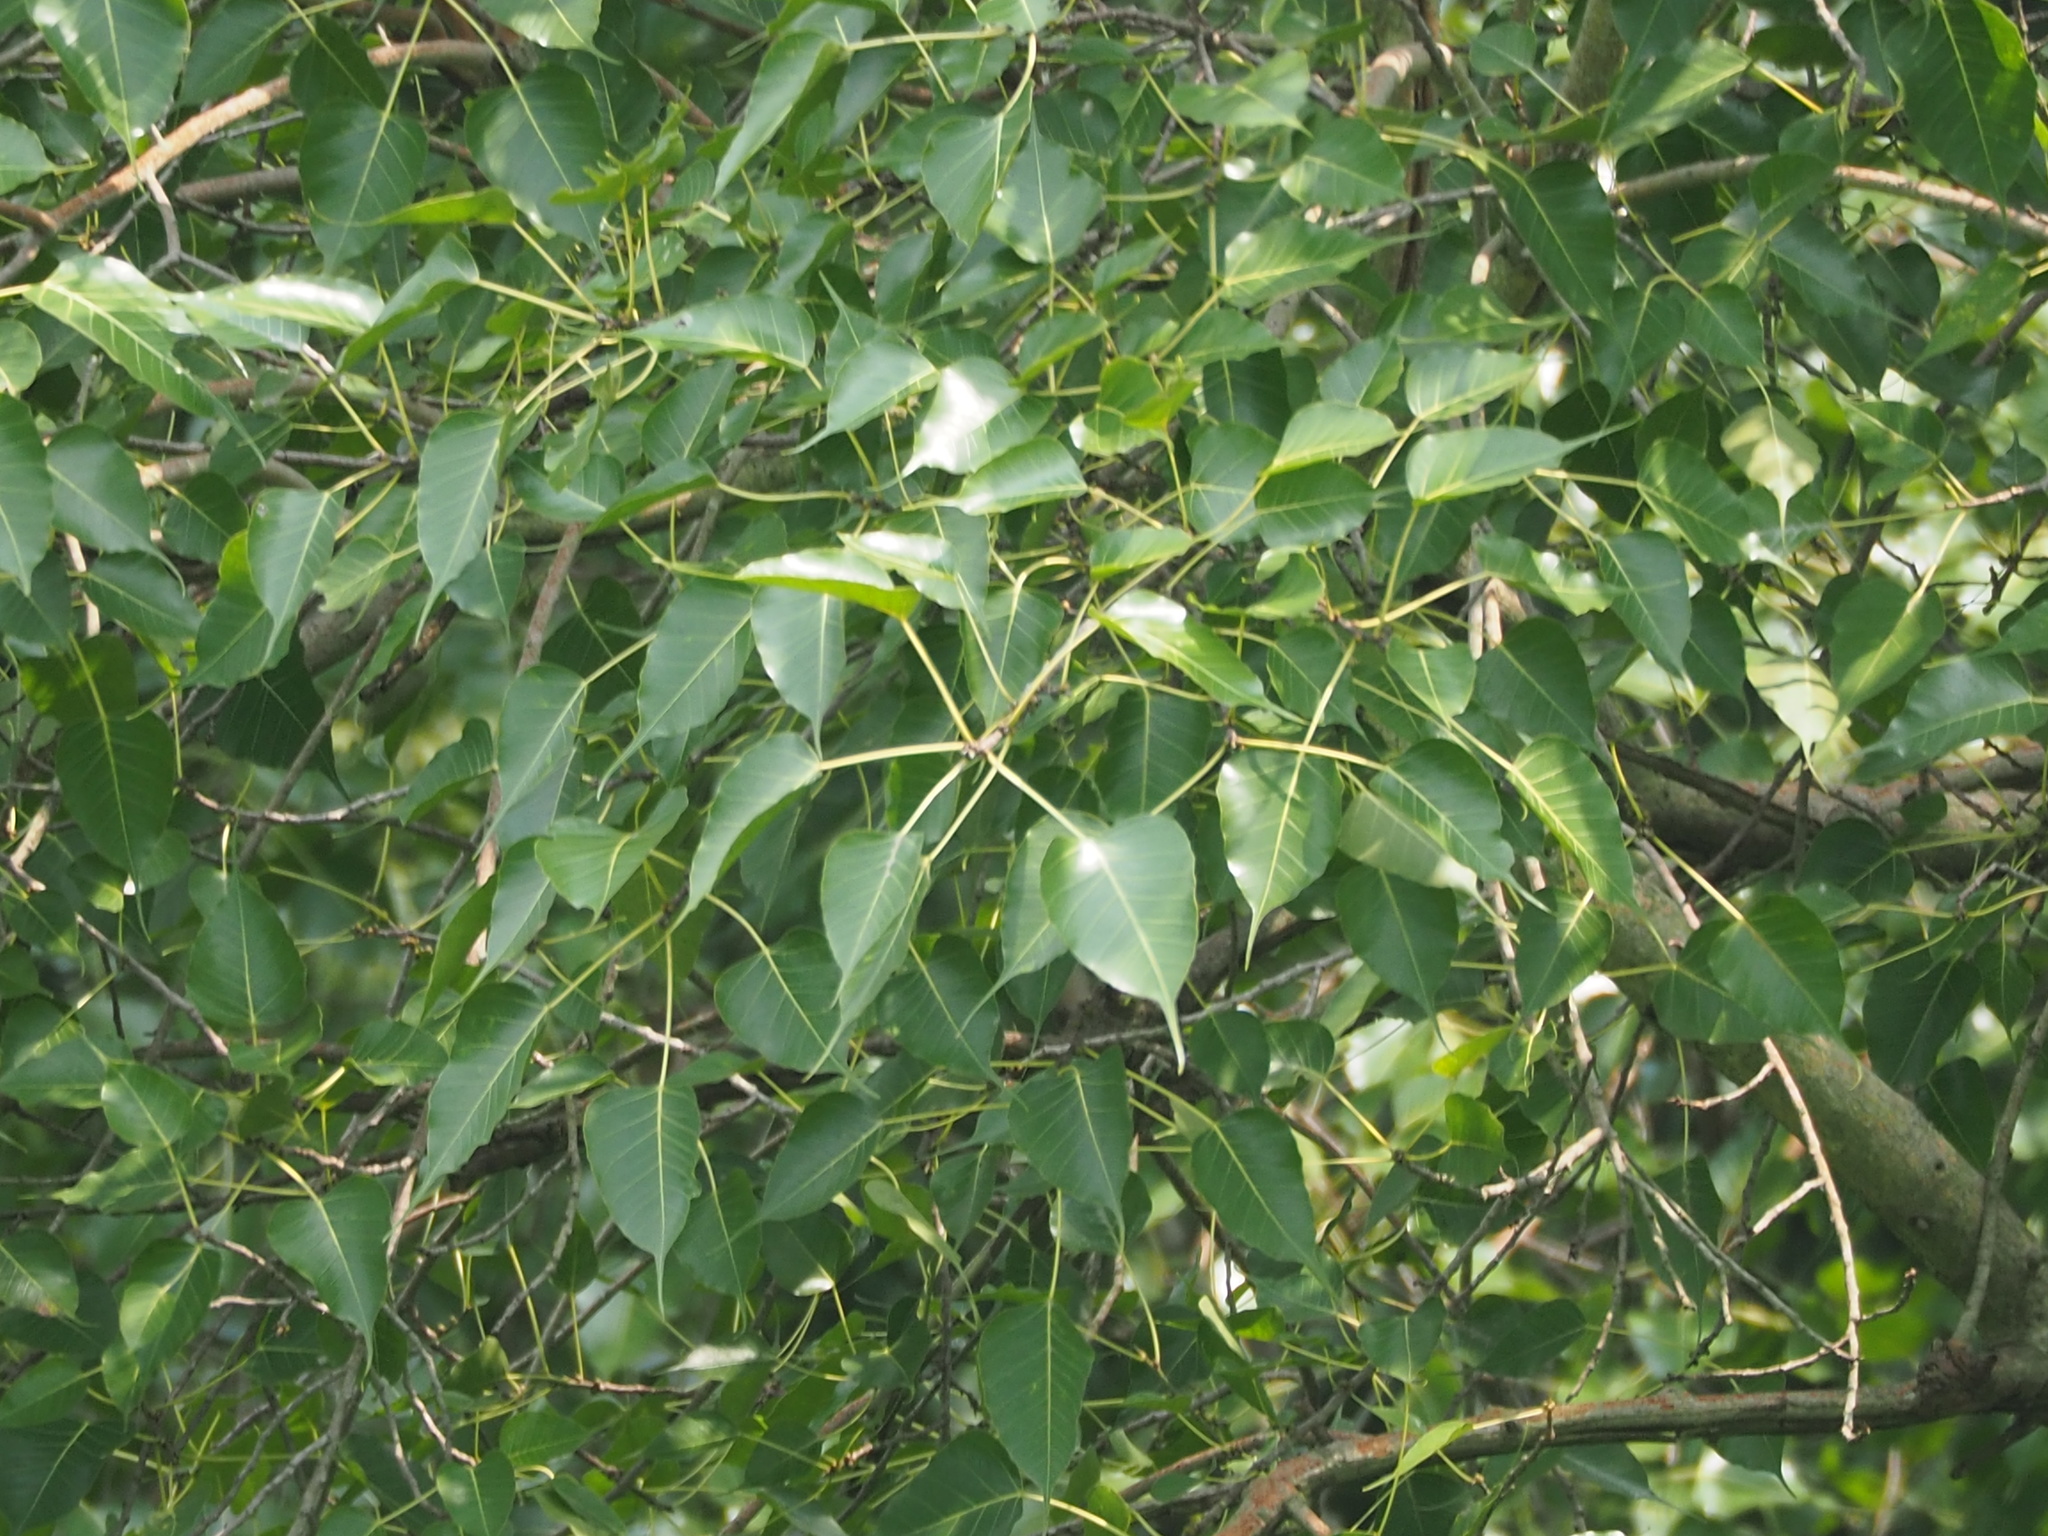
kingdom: Plantae
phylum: Tracheophyta
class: Magnoliopsida
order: Rosales
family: Moraceae
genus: Ficus
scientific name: Ficus religiosa
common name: Bodhi tree
